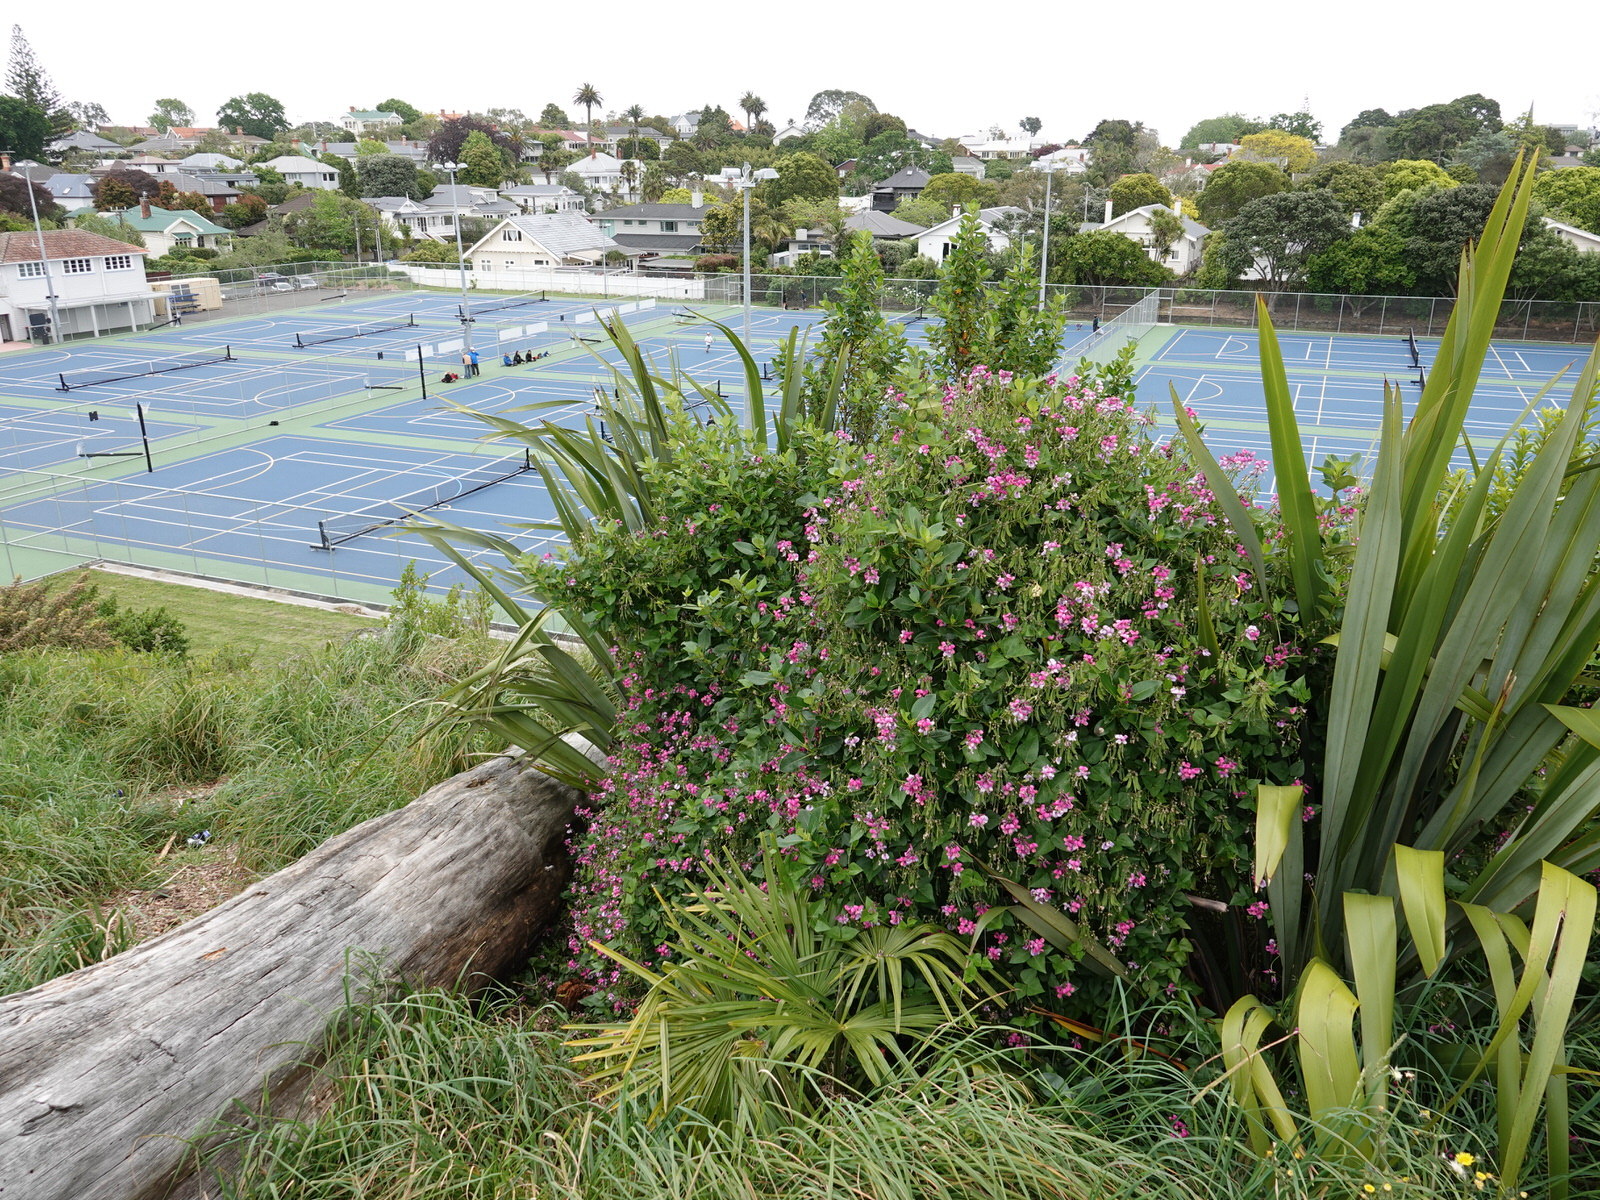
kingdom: Plantae
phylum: Tracheophyta
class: Magnoliopsida
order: Fabales
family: Fabaceae
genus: Dipogon
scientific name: Dipogon lignosus
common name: Okie bean
